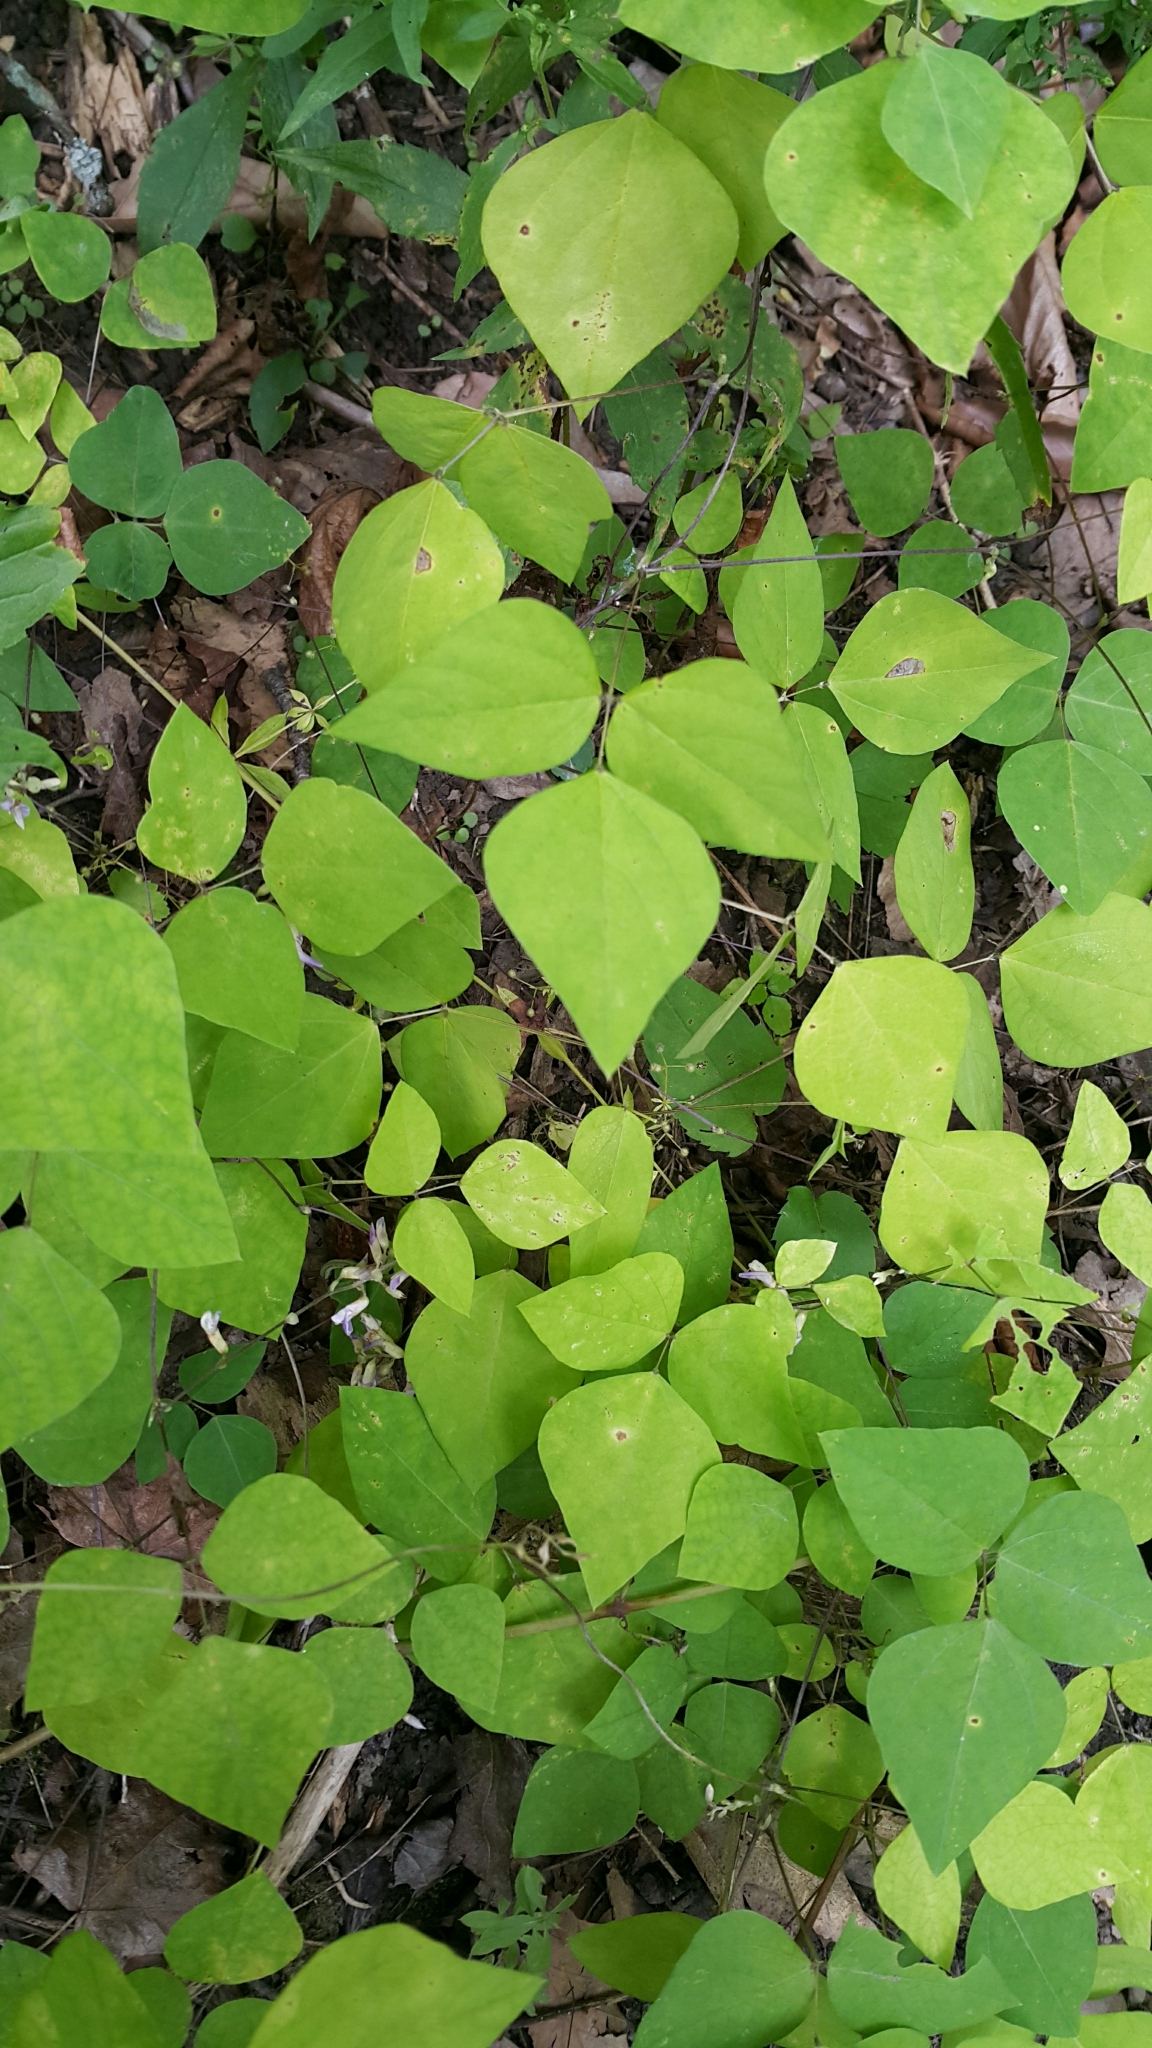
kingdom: Plantae
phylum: Tracheophyta
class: Magnoliopsida
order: Fabales
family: Fabaceae
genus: Amphicarpaea
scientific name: Amphicarpaea bracteata
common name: American hog peanut
